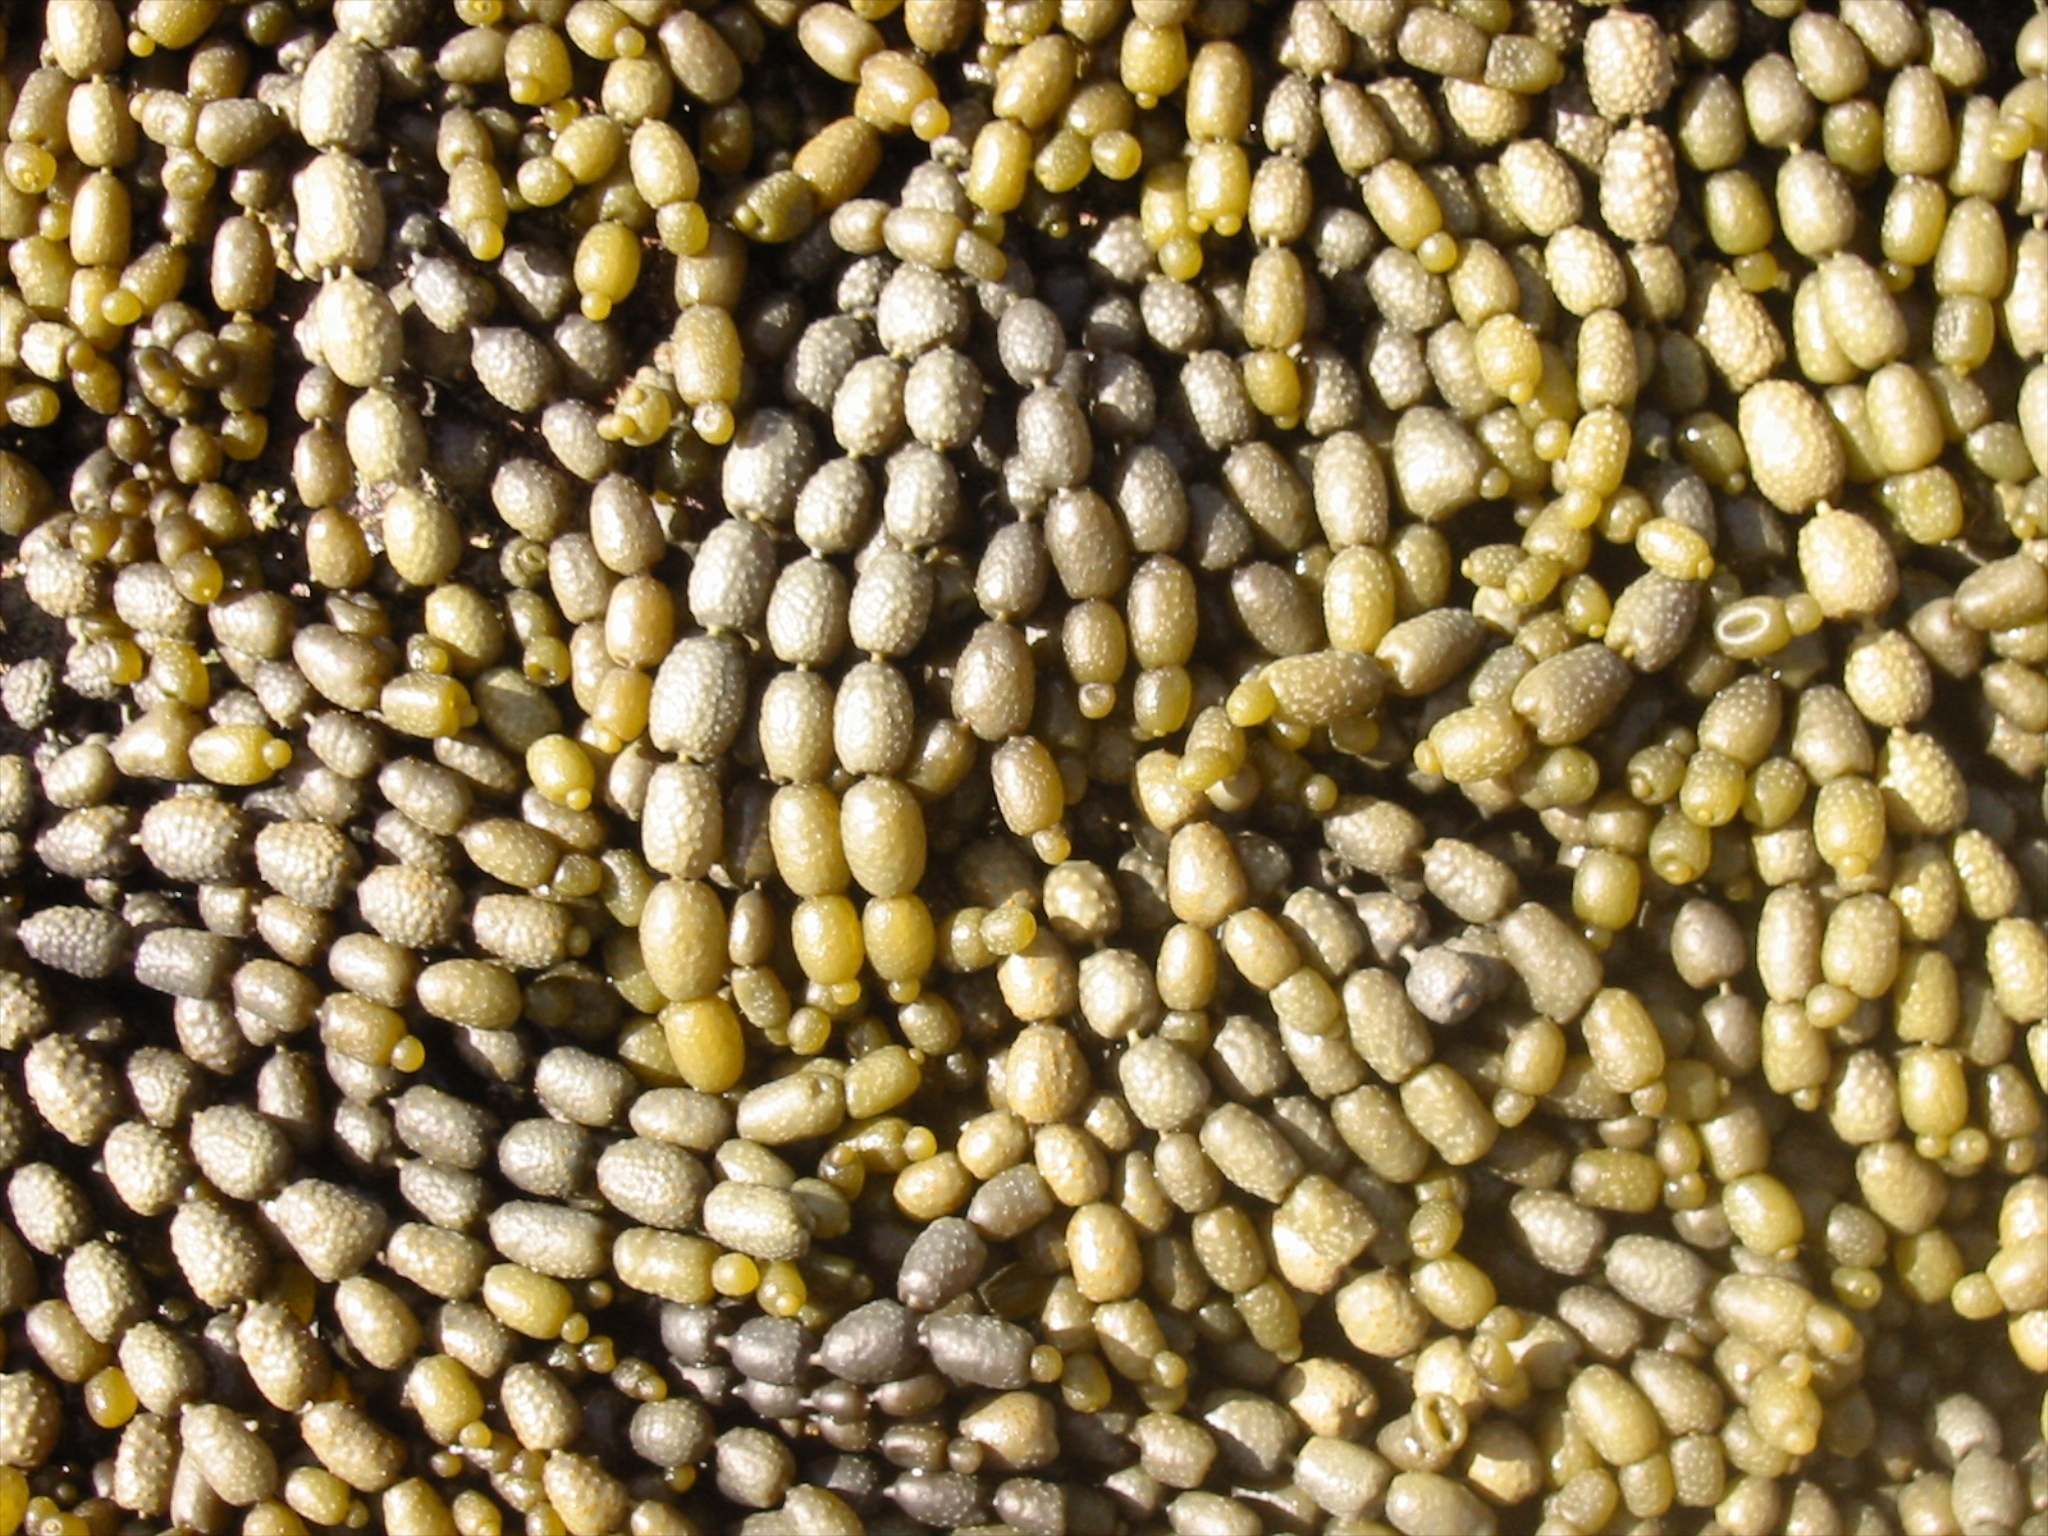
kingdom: Chromista
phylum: Ochrophyta
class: Phaeophyceae
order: Fucales
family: Hormosiraceae
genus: Hormosira
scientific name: Hormosira banksii
